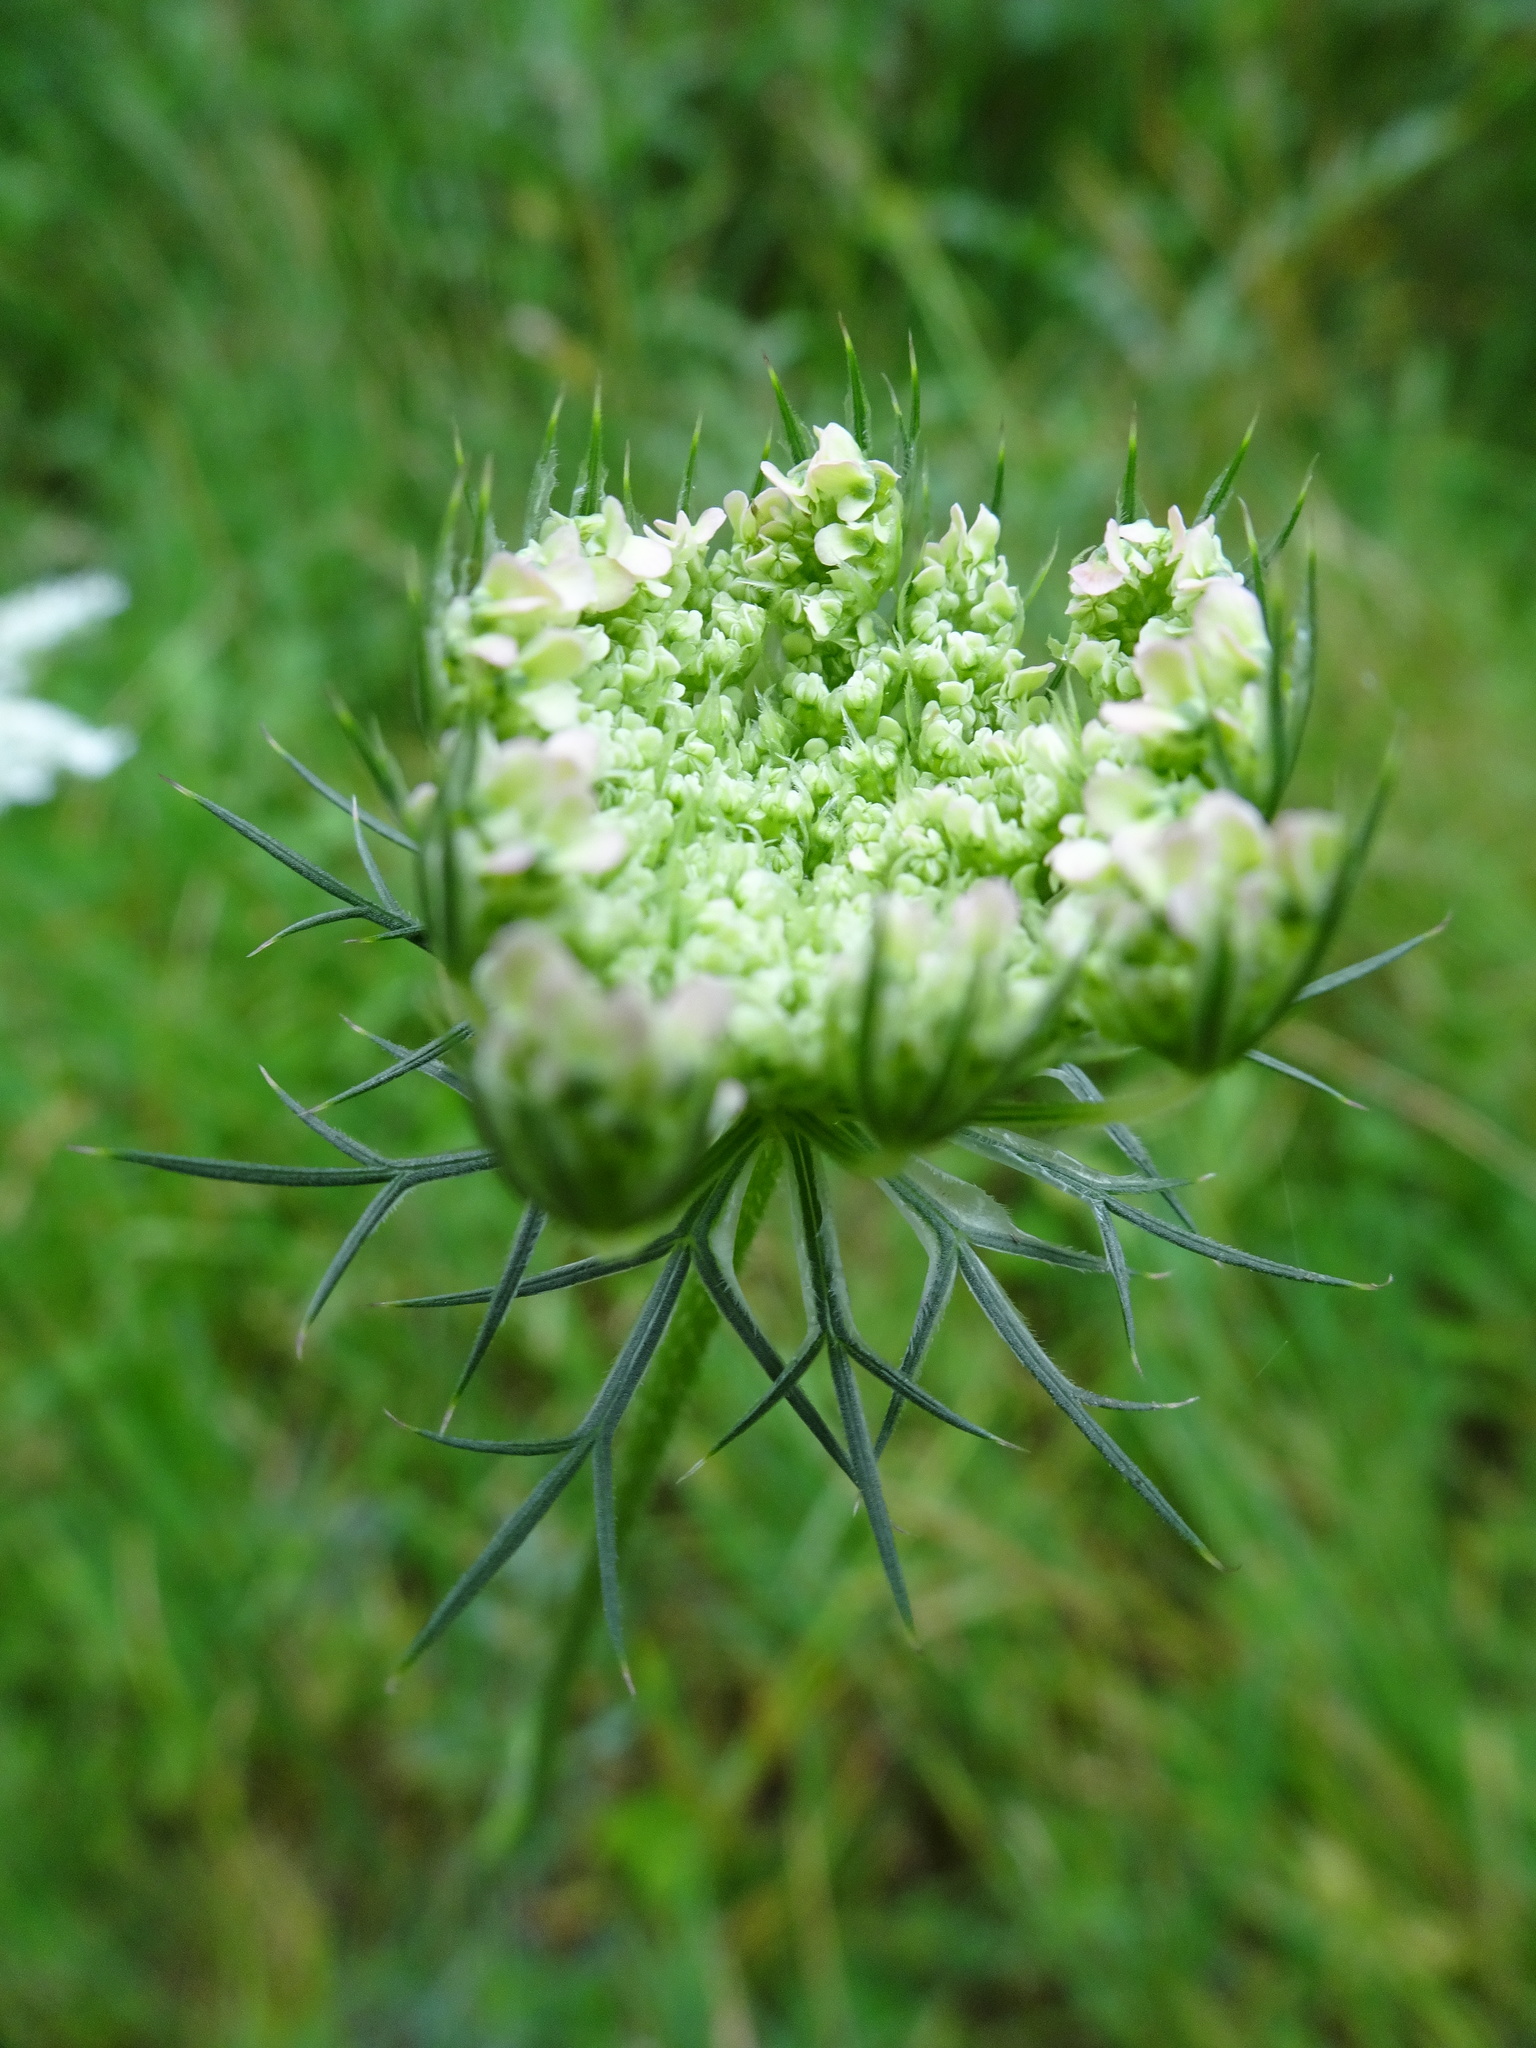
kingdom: Plantae
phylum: Tracheophyta
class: Magnoliopsida
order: Apiales
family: Apiaceae
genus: Daucus
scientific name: Daucus carota
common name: Wild carrot
